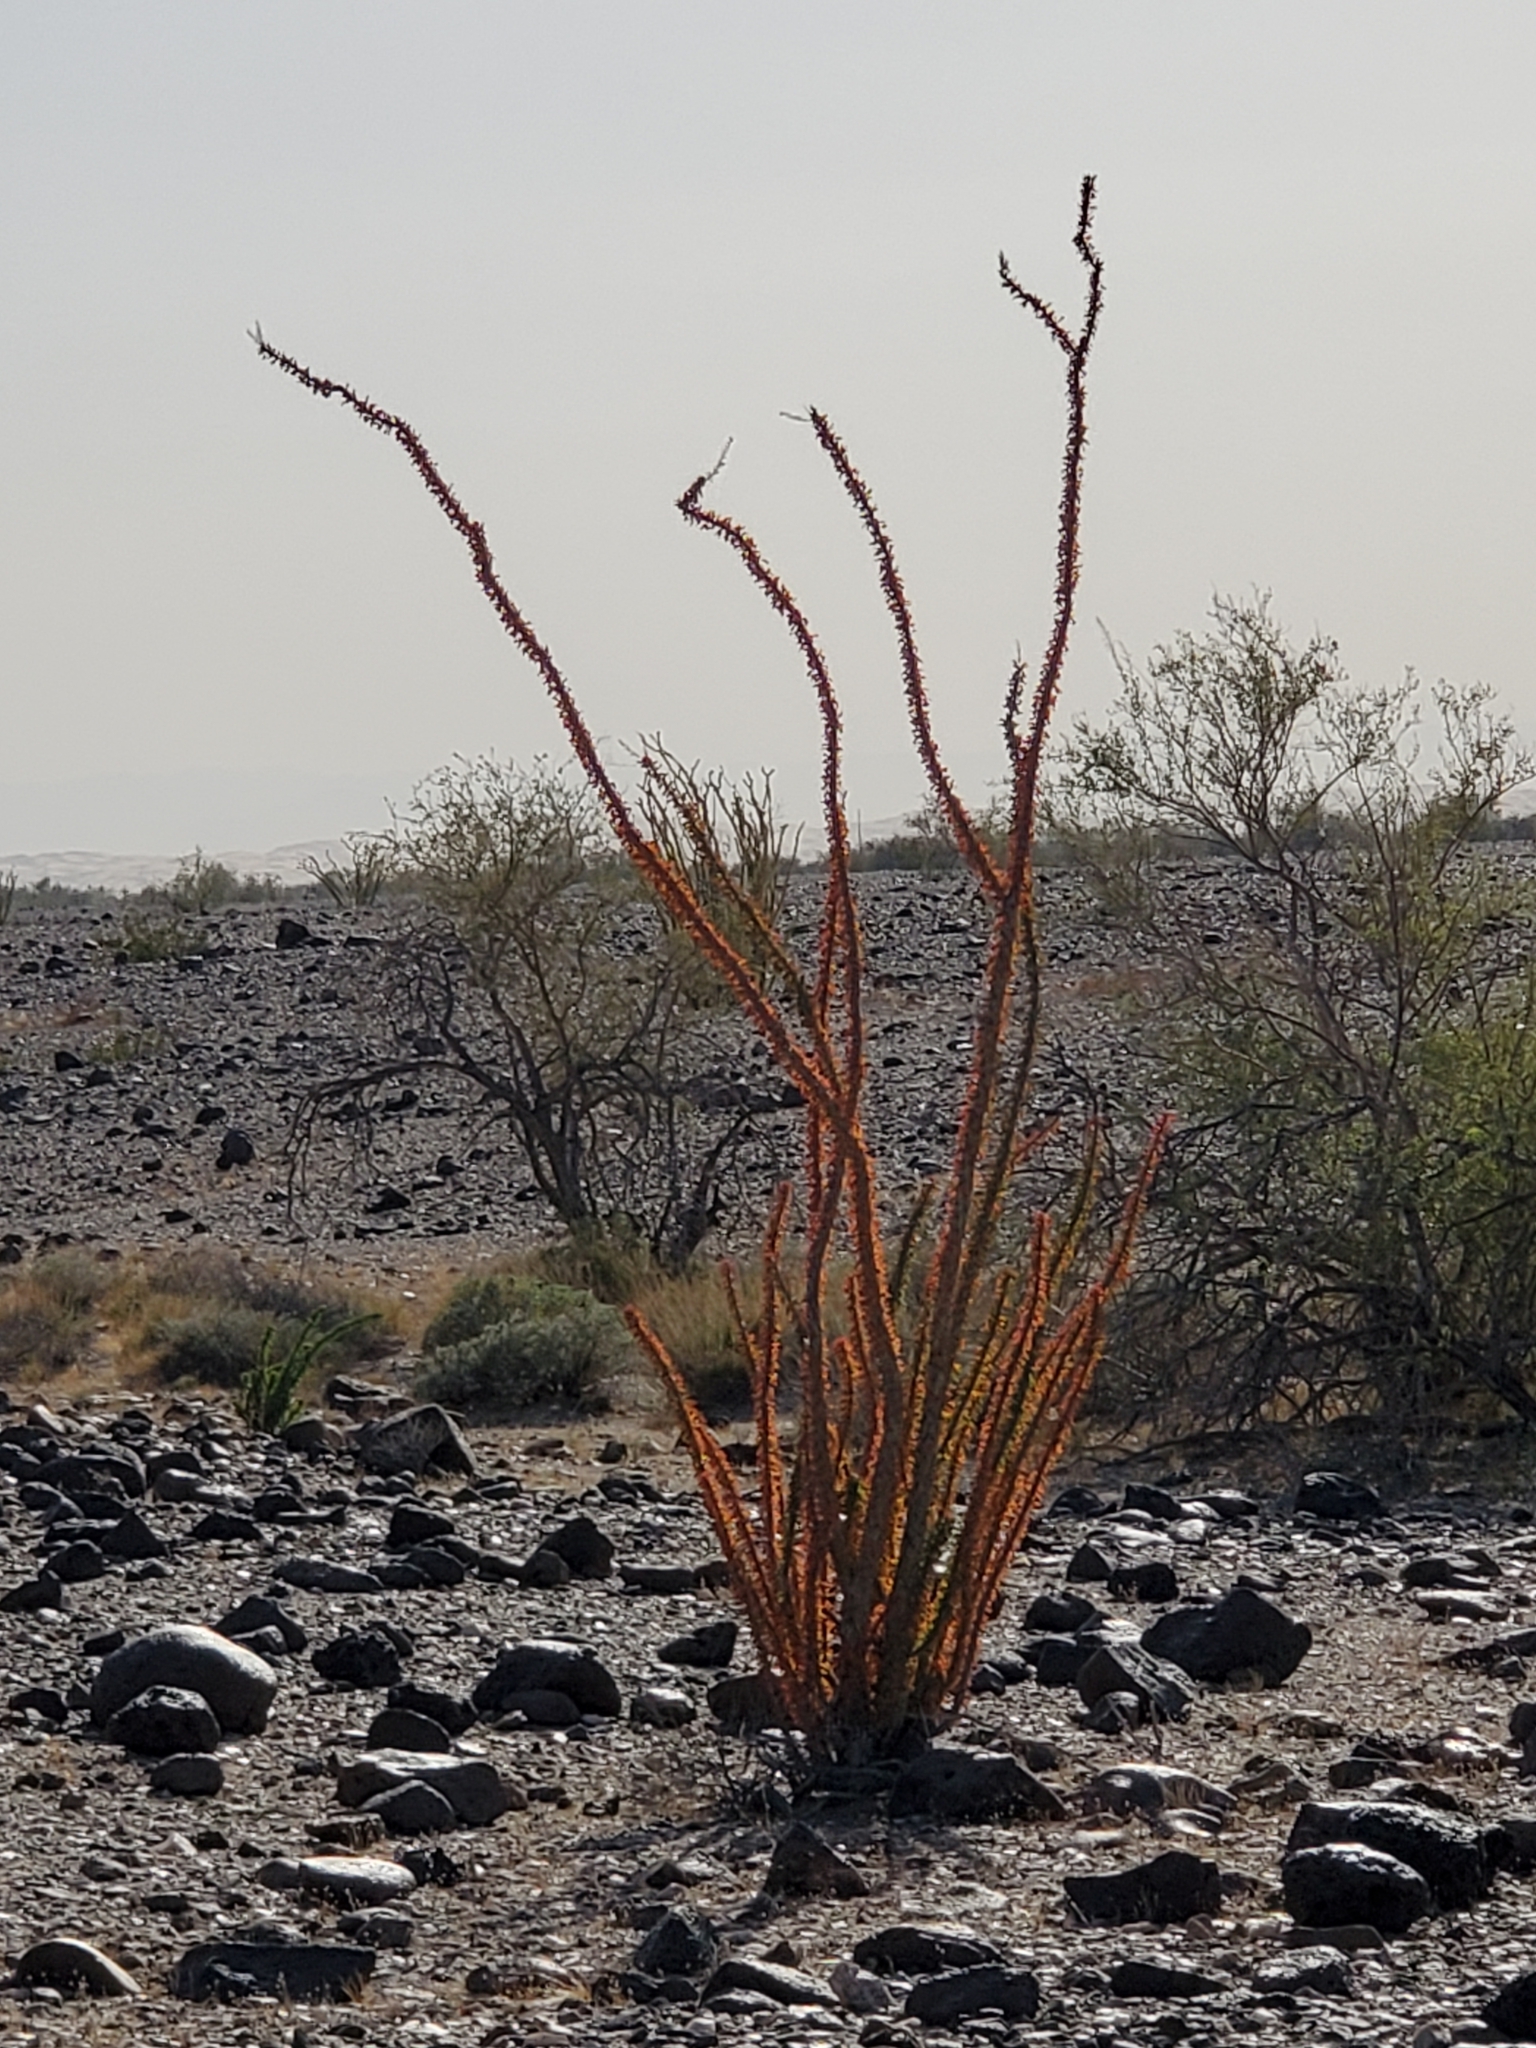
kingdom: Plantae
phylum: Tracheophyta
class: Magnoliopsida
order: Ericales
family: Fouquieriaceae
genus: Fouquieria
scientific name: Fouquieria splendens
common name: Vine-cactus
